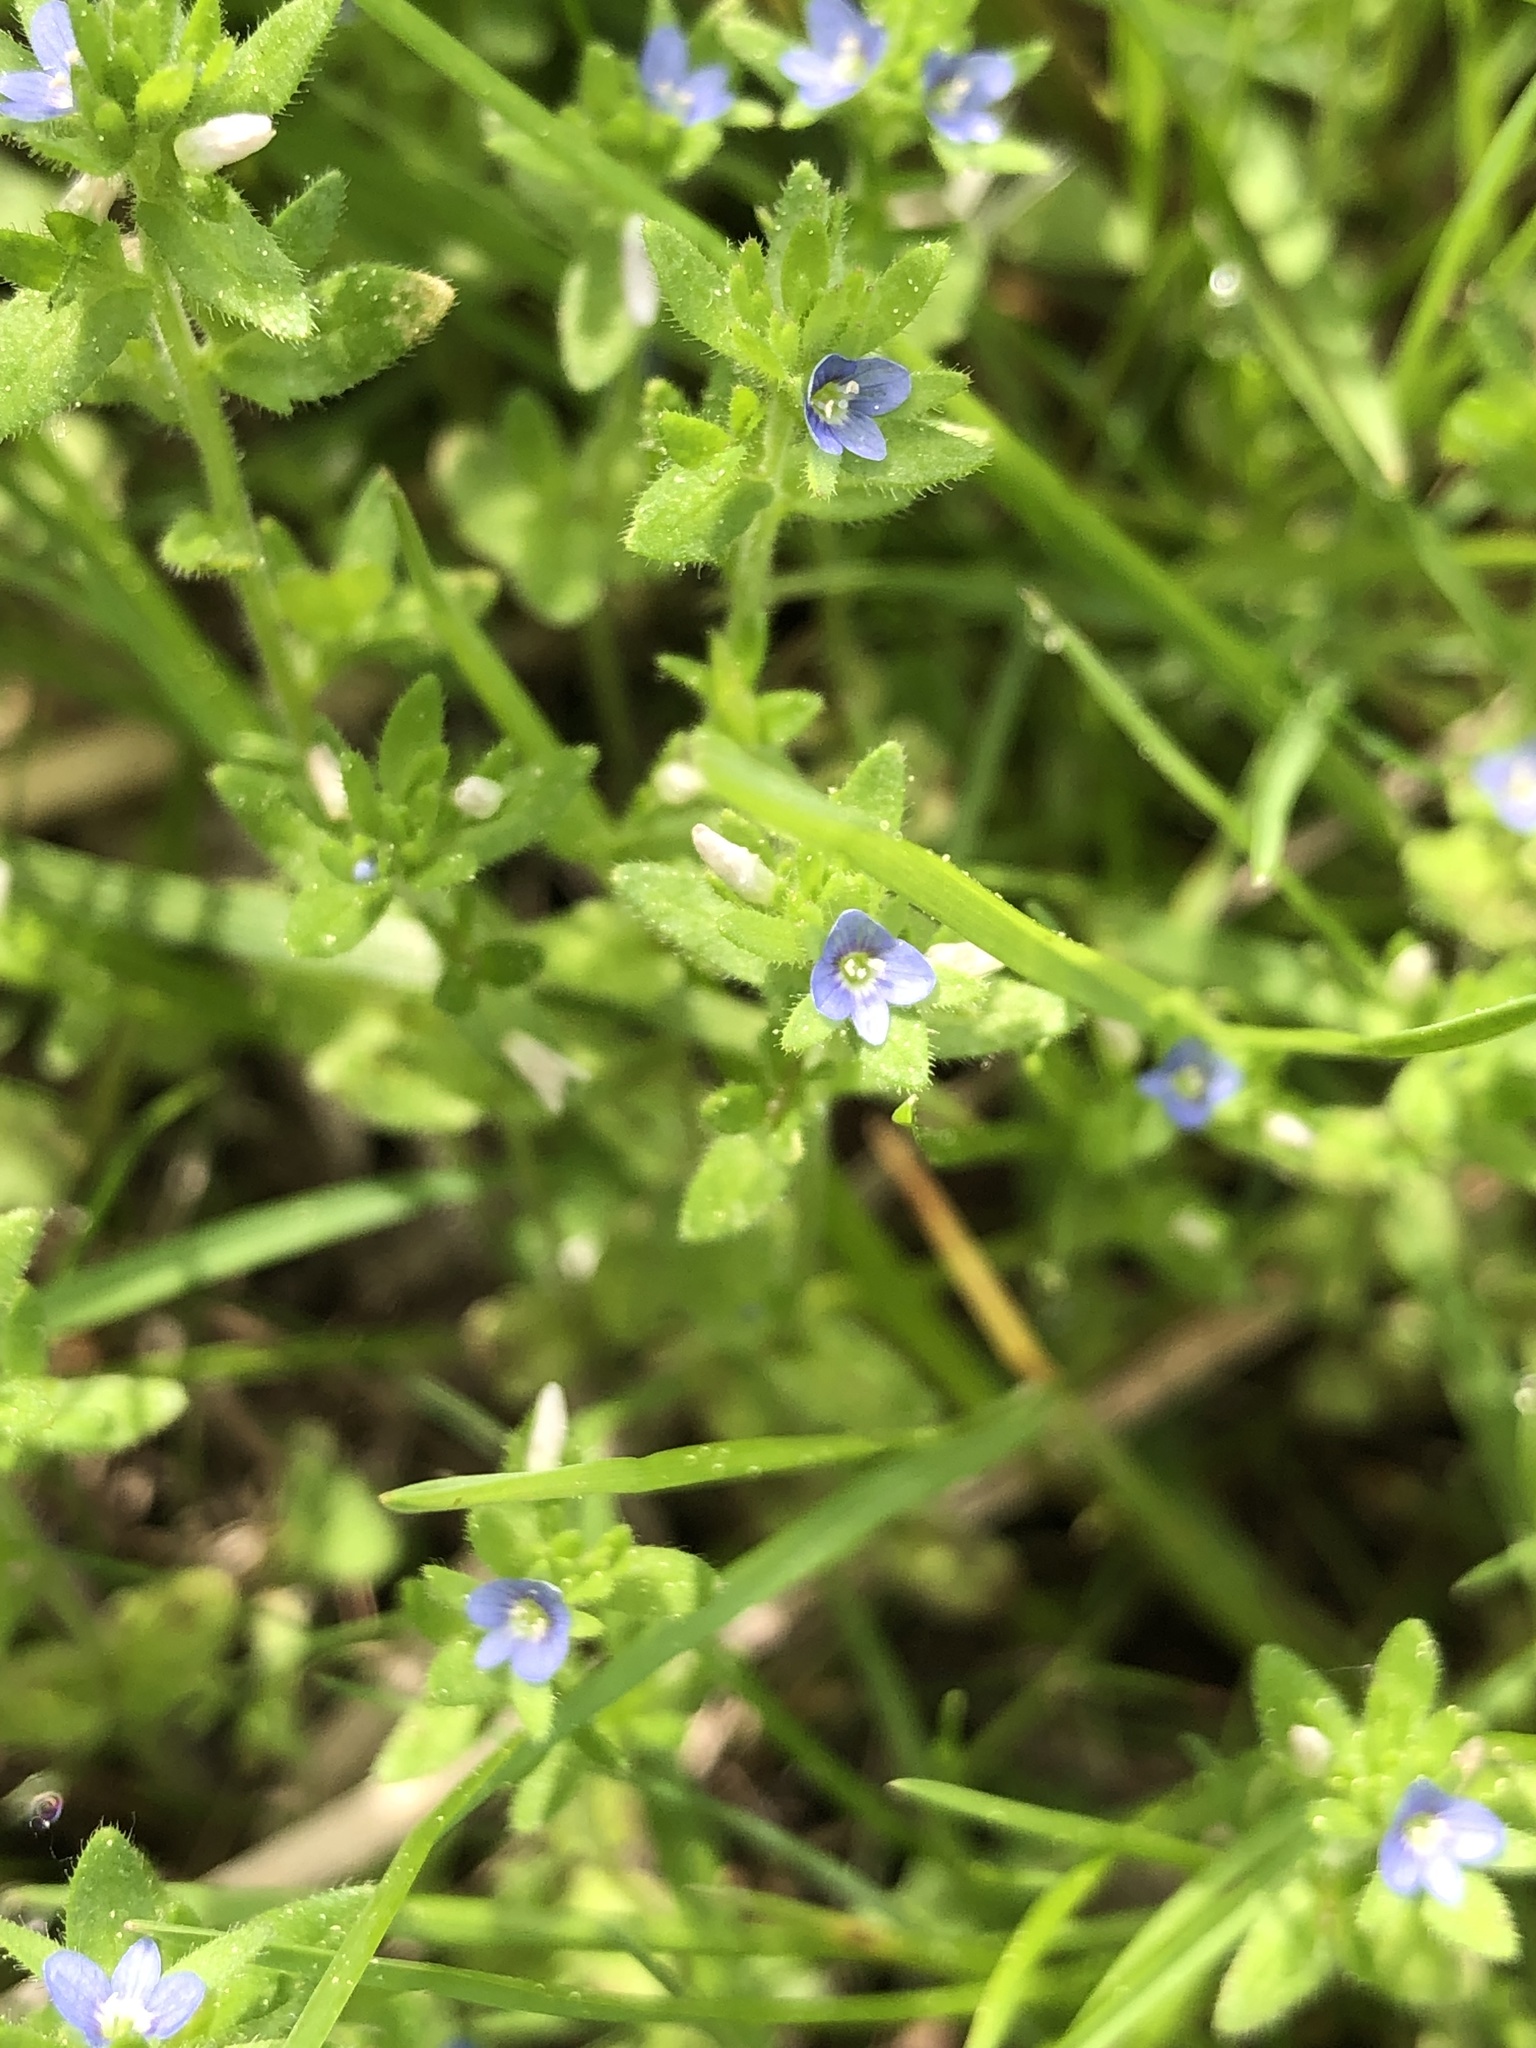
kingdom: Plantae
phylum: Tracheophyta
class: Magnoliopsida
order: Lamiales
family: Plantaginaceae
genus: Veronica
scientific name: Veronica arvensis
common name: Corn speedwell
